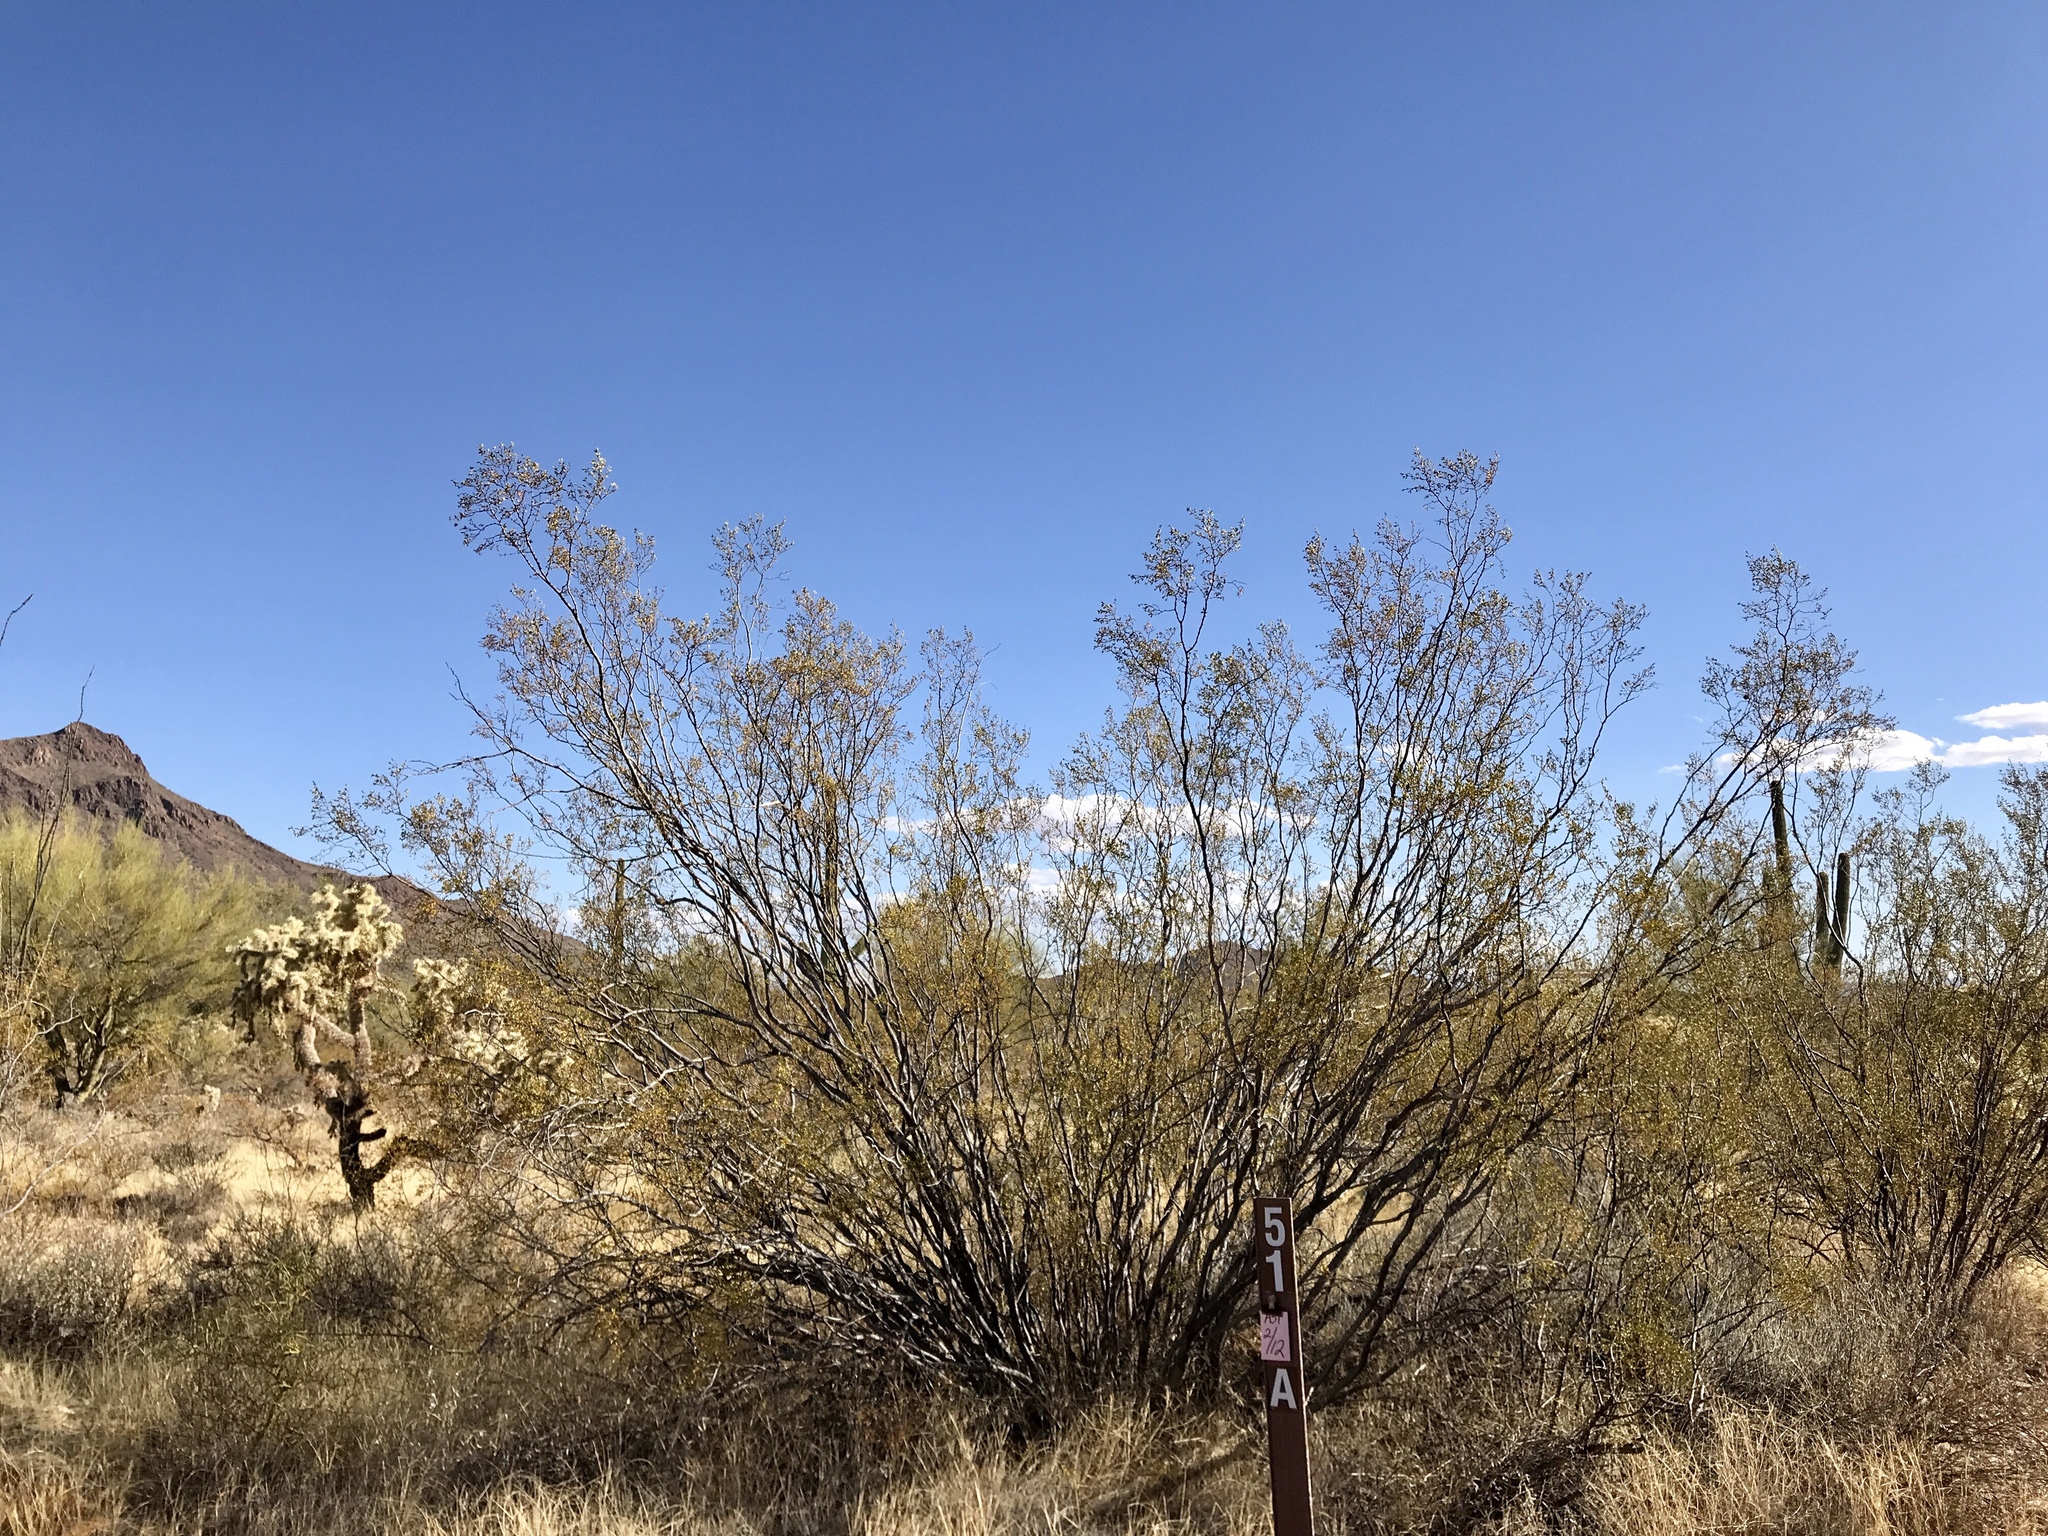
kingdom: Plantae
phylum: Tracheophyta
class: Magnoliopsida
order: Zygophyllales
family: Zygophyllaceae
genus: Larrea
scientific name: Larrea tridentata
